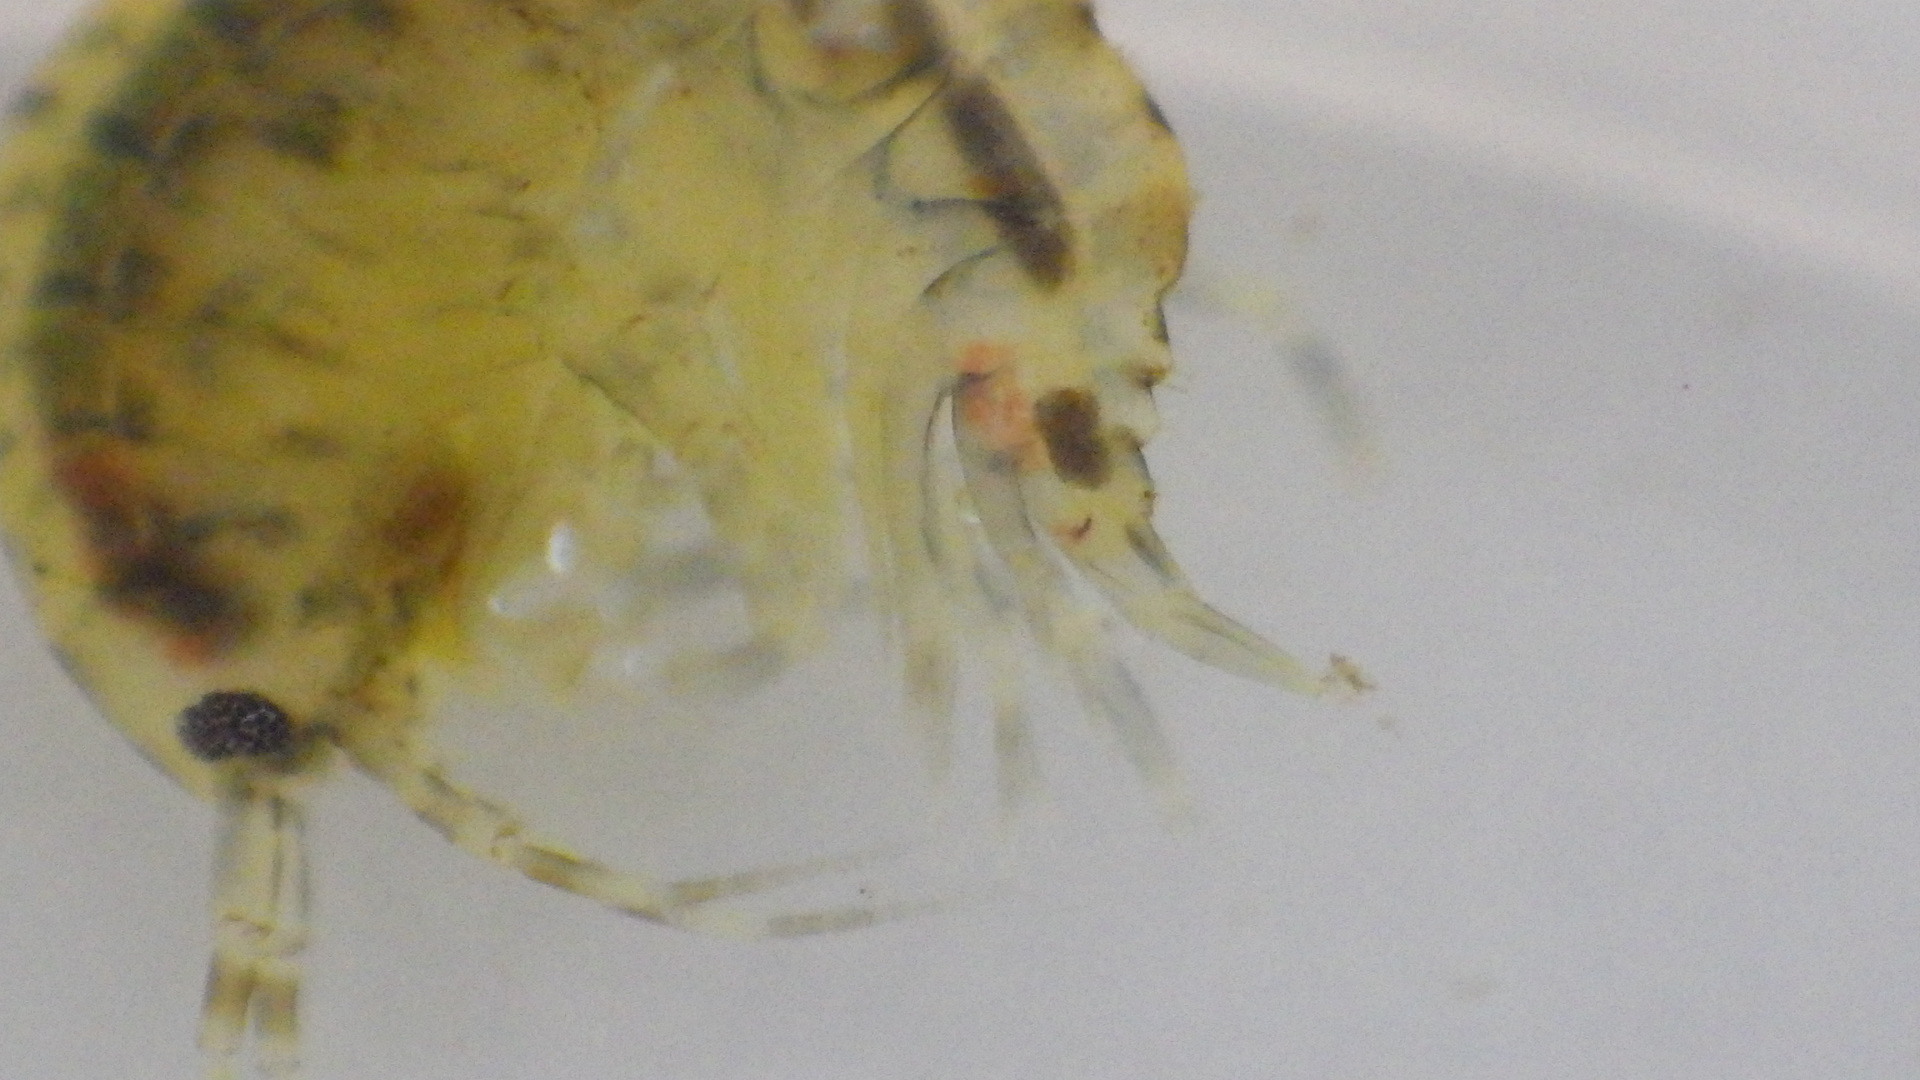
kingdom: Animalia
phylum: Arthropoda
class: Malacostraca
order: Amphipoda
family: Gammaridae
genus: Gammarus
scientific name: Gammarus fasciatus
